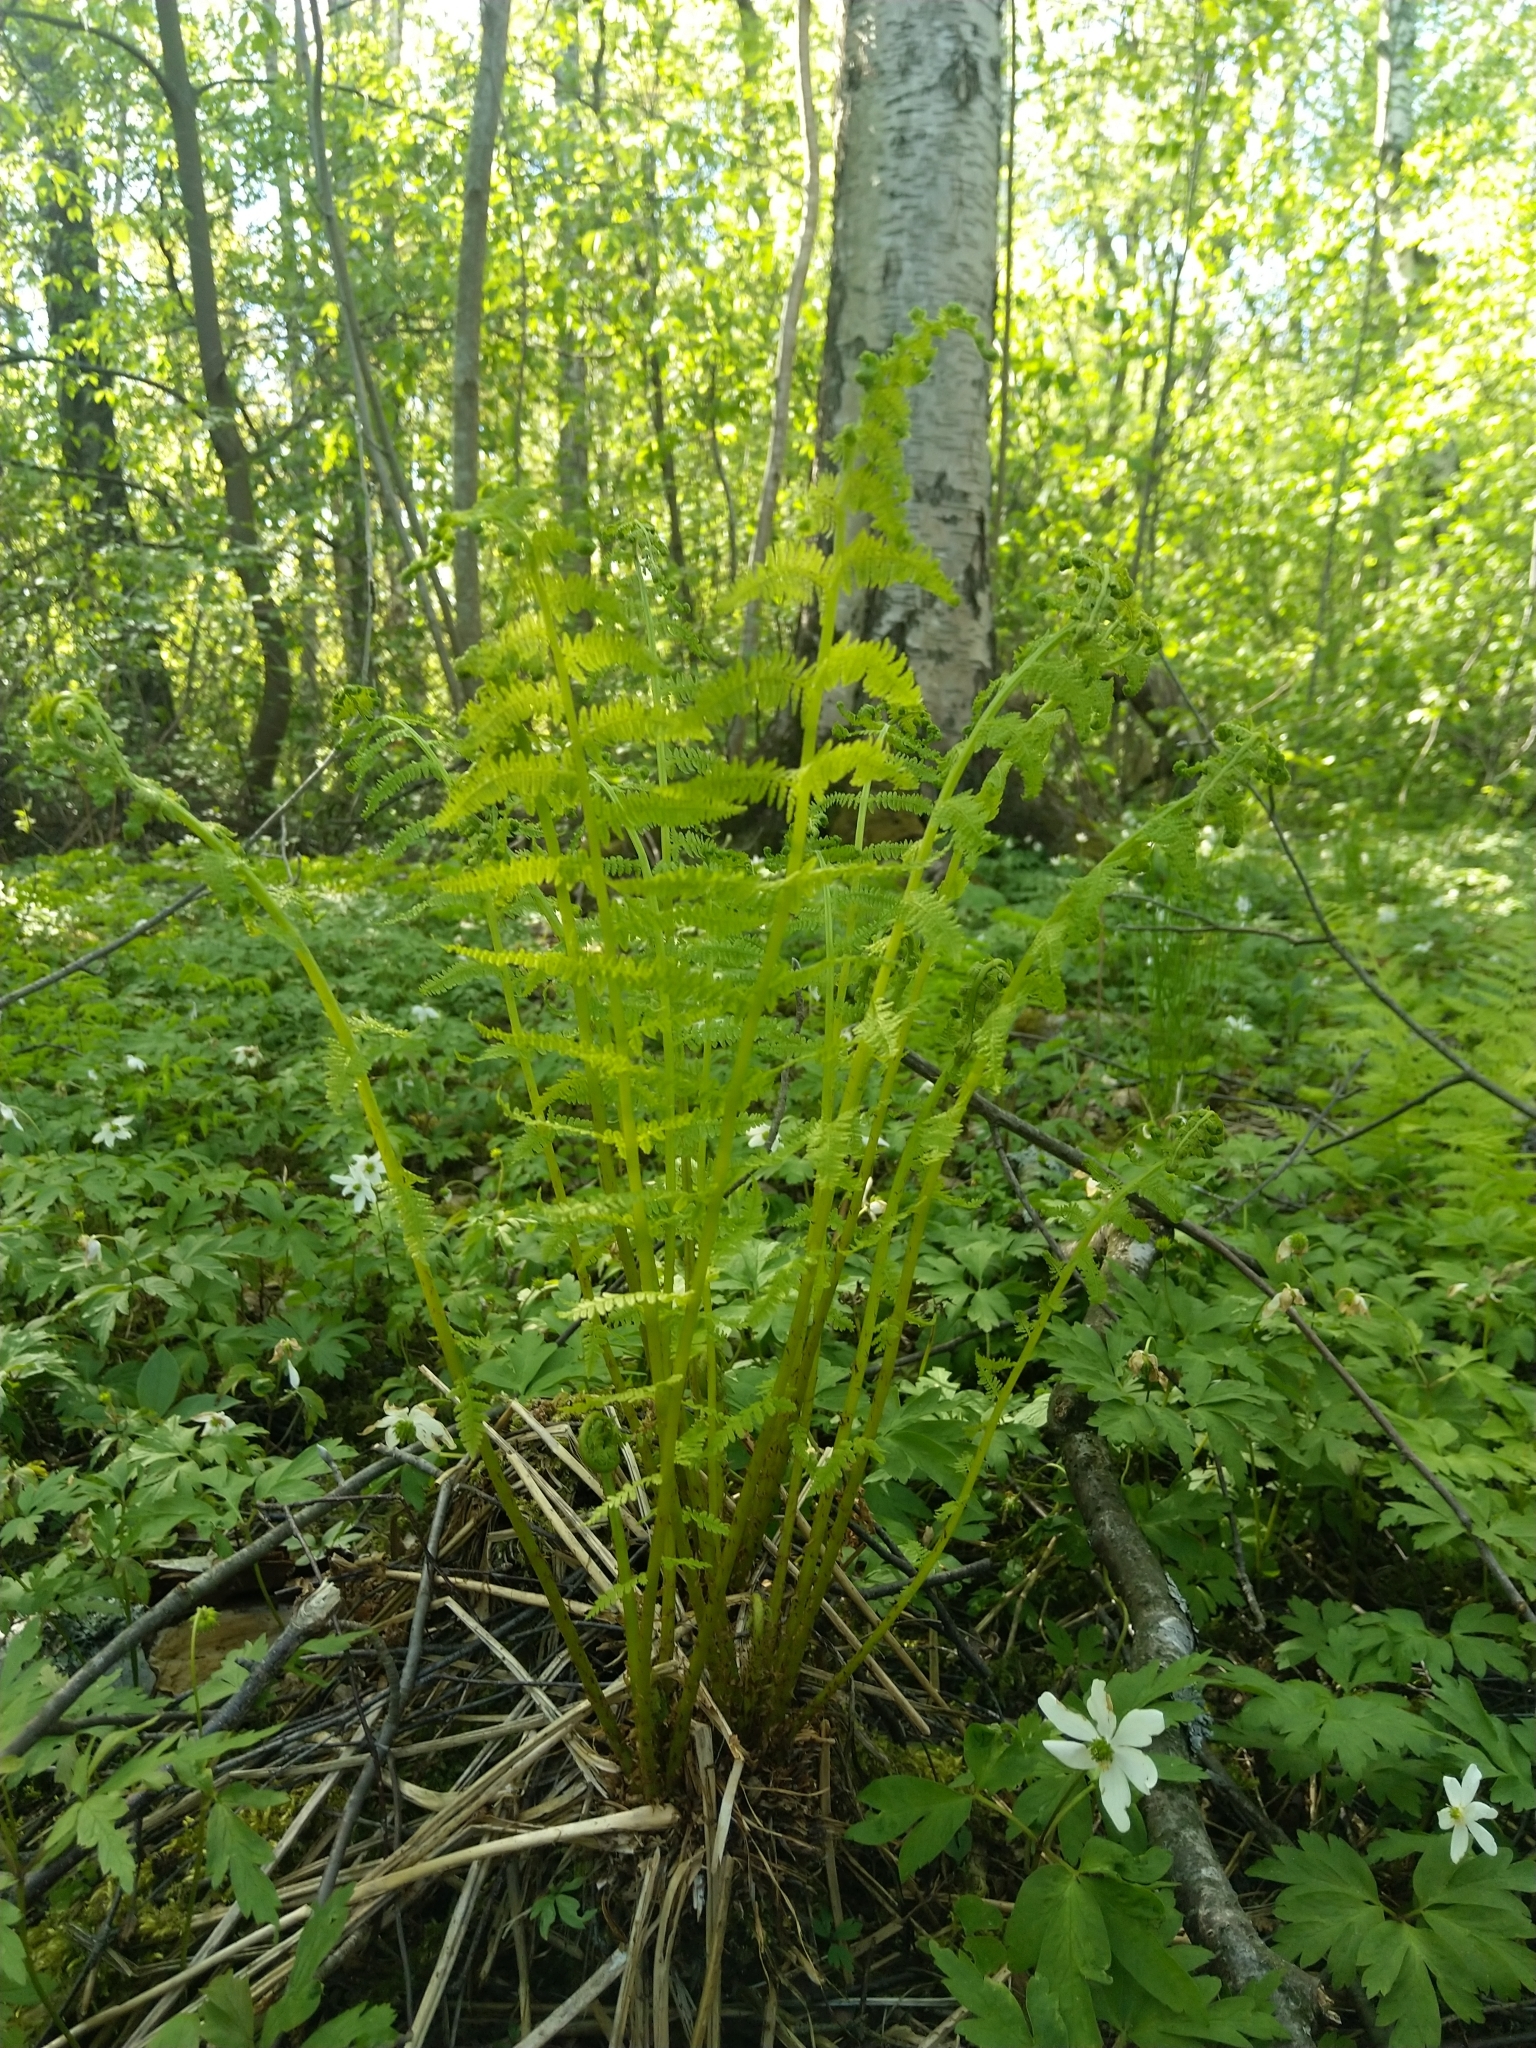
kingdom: Plantae
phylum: Tracheophyta
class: Polypodiopsida
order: Polypodiales
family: Athyriaceae
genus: Athyrium
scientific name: Athyrium filix-femina
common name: Lady fern
